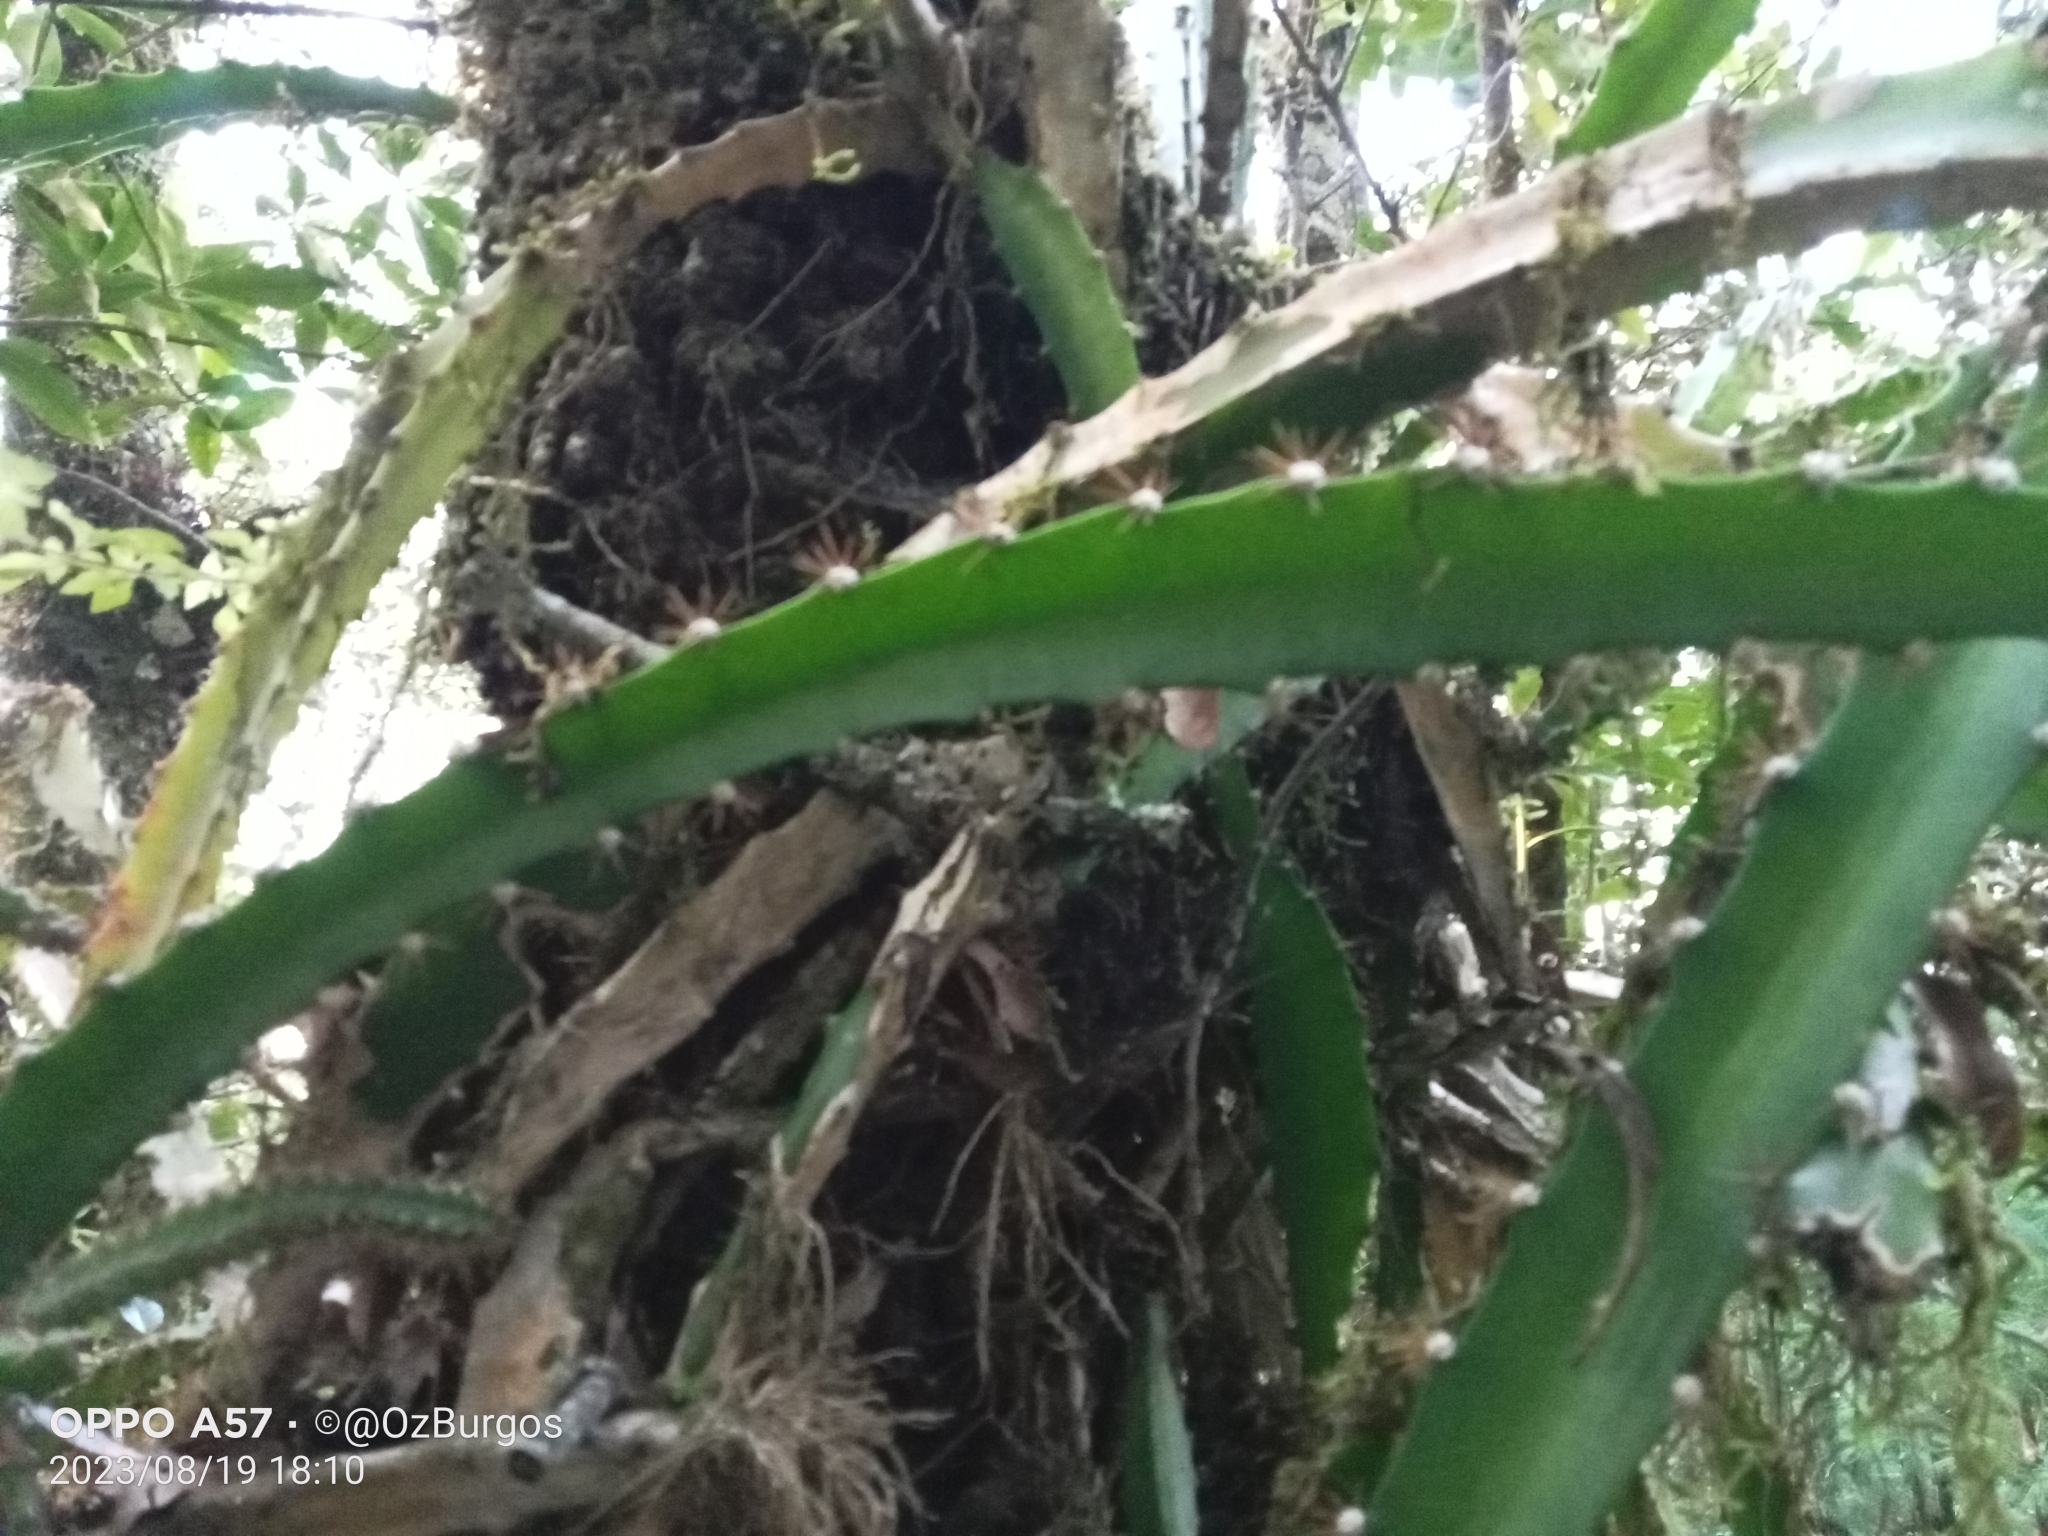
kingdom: Plantae
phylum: Tracheophyta
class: Magnoliopsida
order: Caryophyllales
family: Cactaceae
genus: Disocactus
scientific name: Disocactus speciosus
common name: Sun cereus
